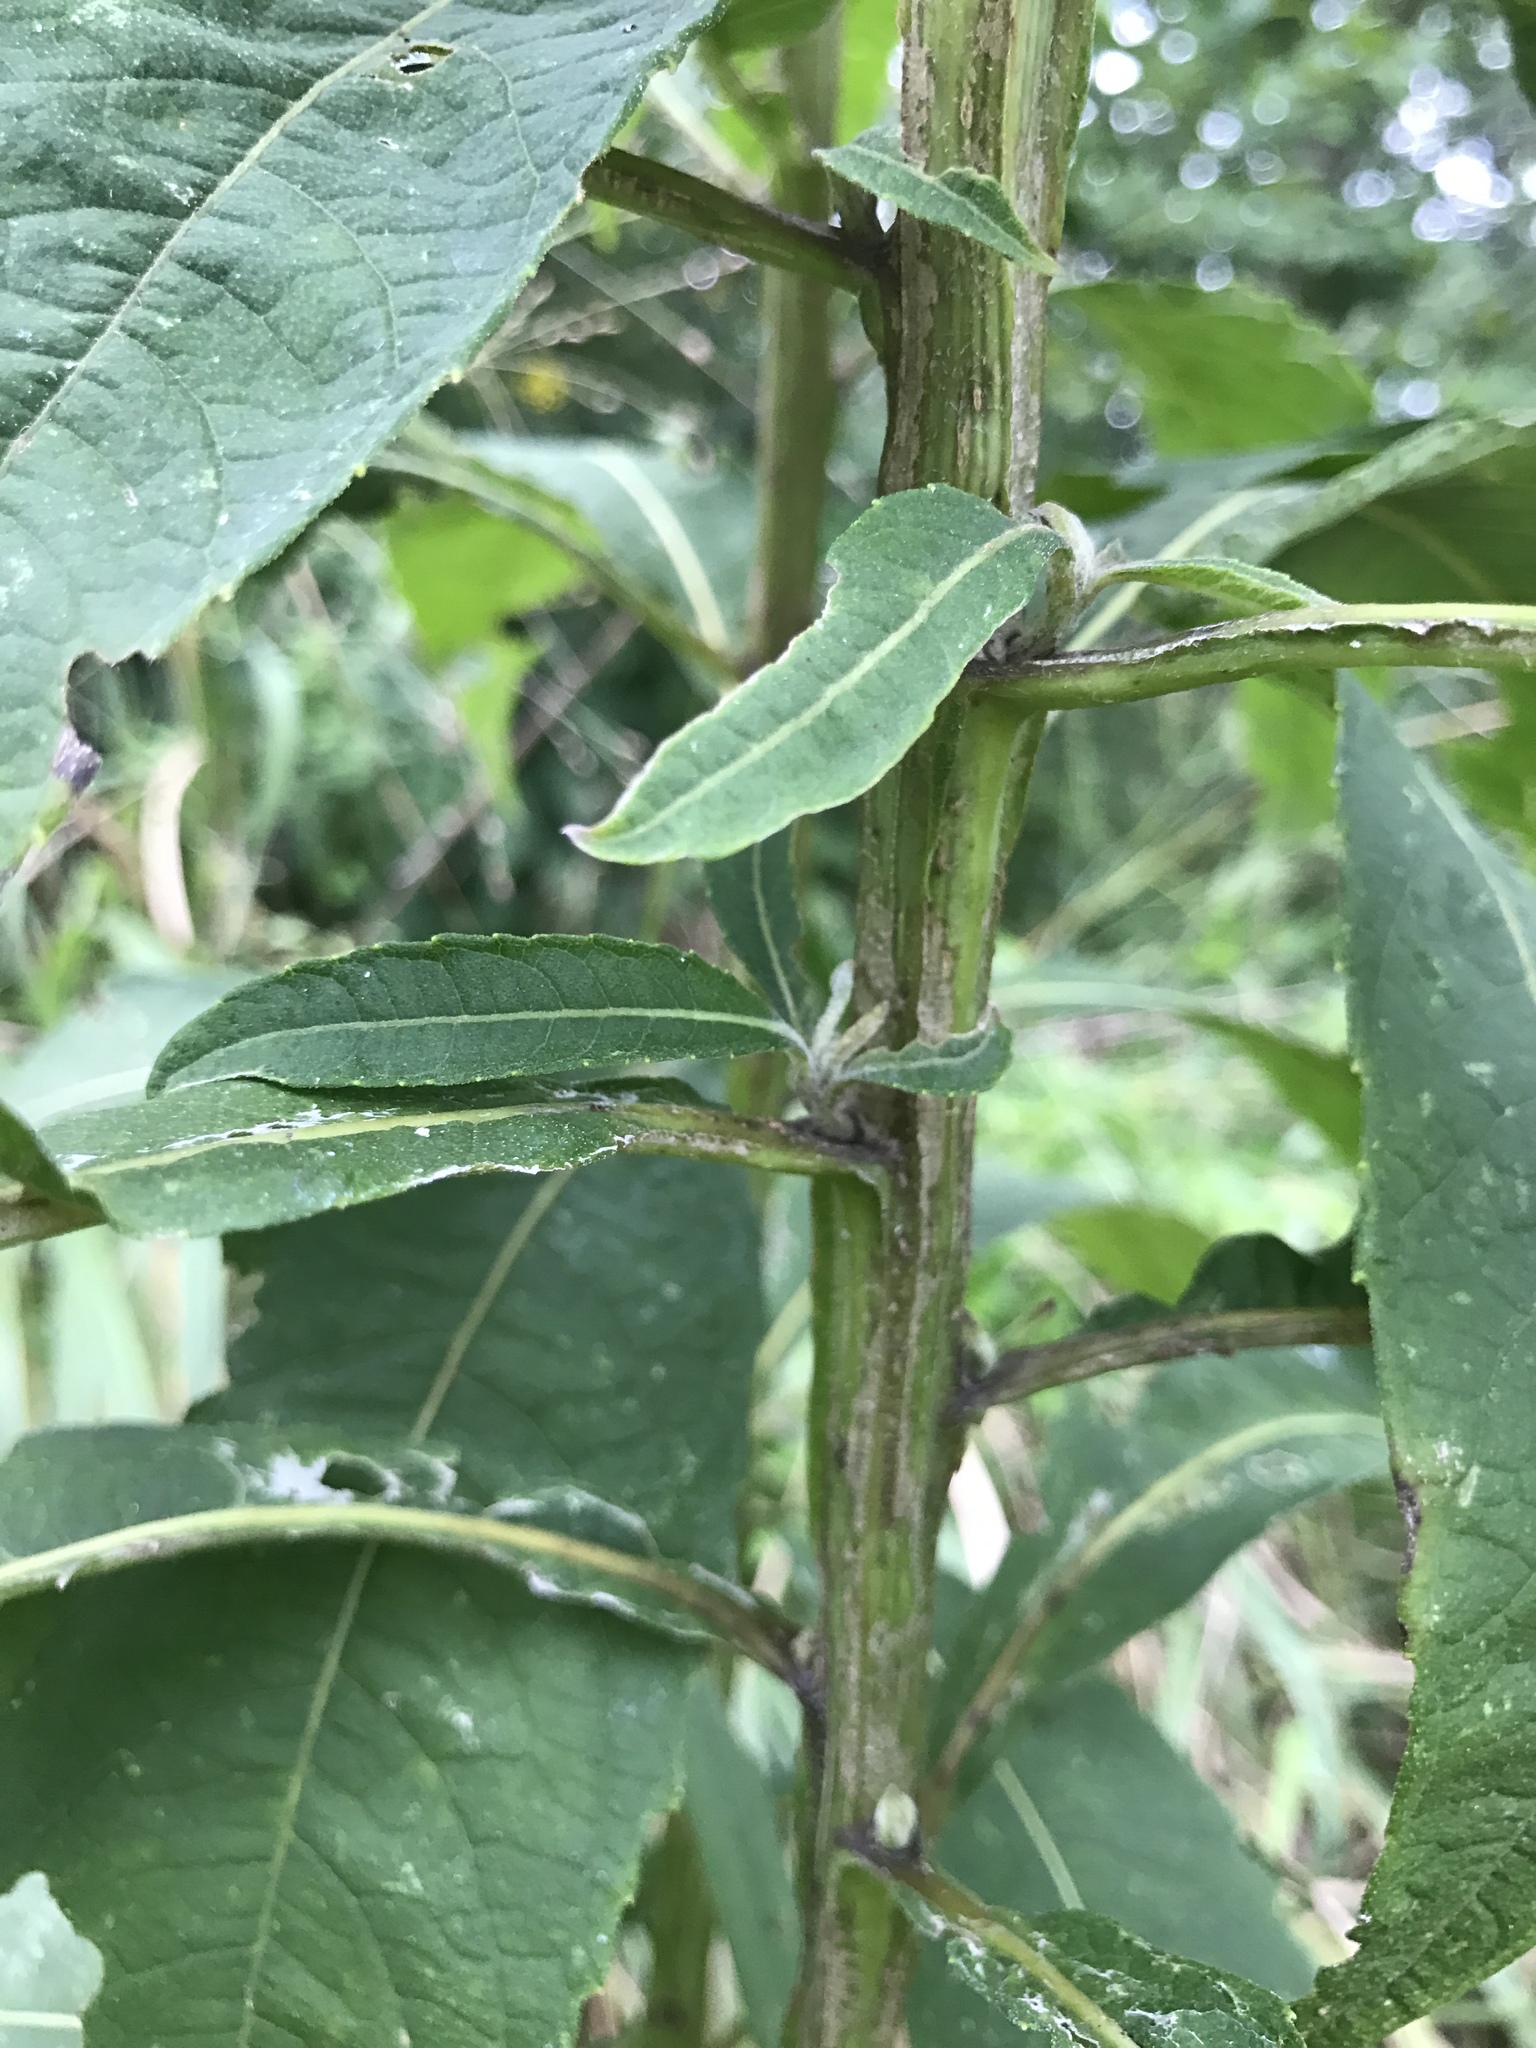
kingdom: Plantae
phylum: Tracheophyta
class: Magnoliopsida
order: Asterales
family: Asteraceae
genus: Verbesina
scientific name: Verbesina alternifolia
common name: Wingstem
